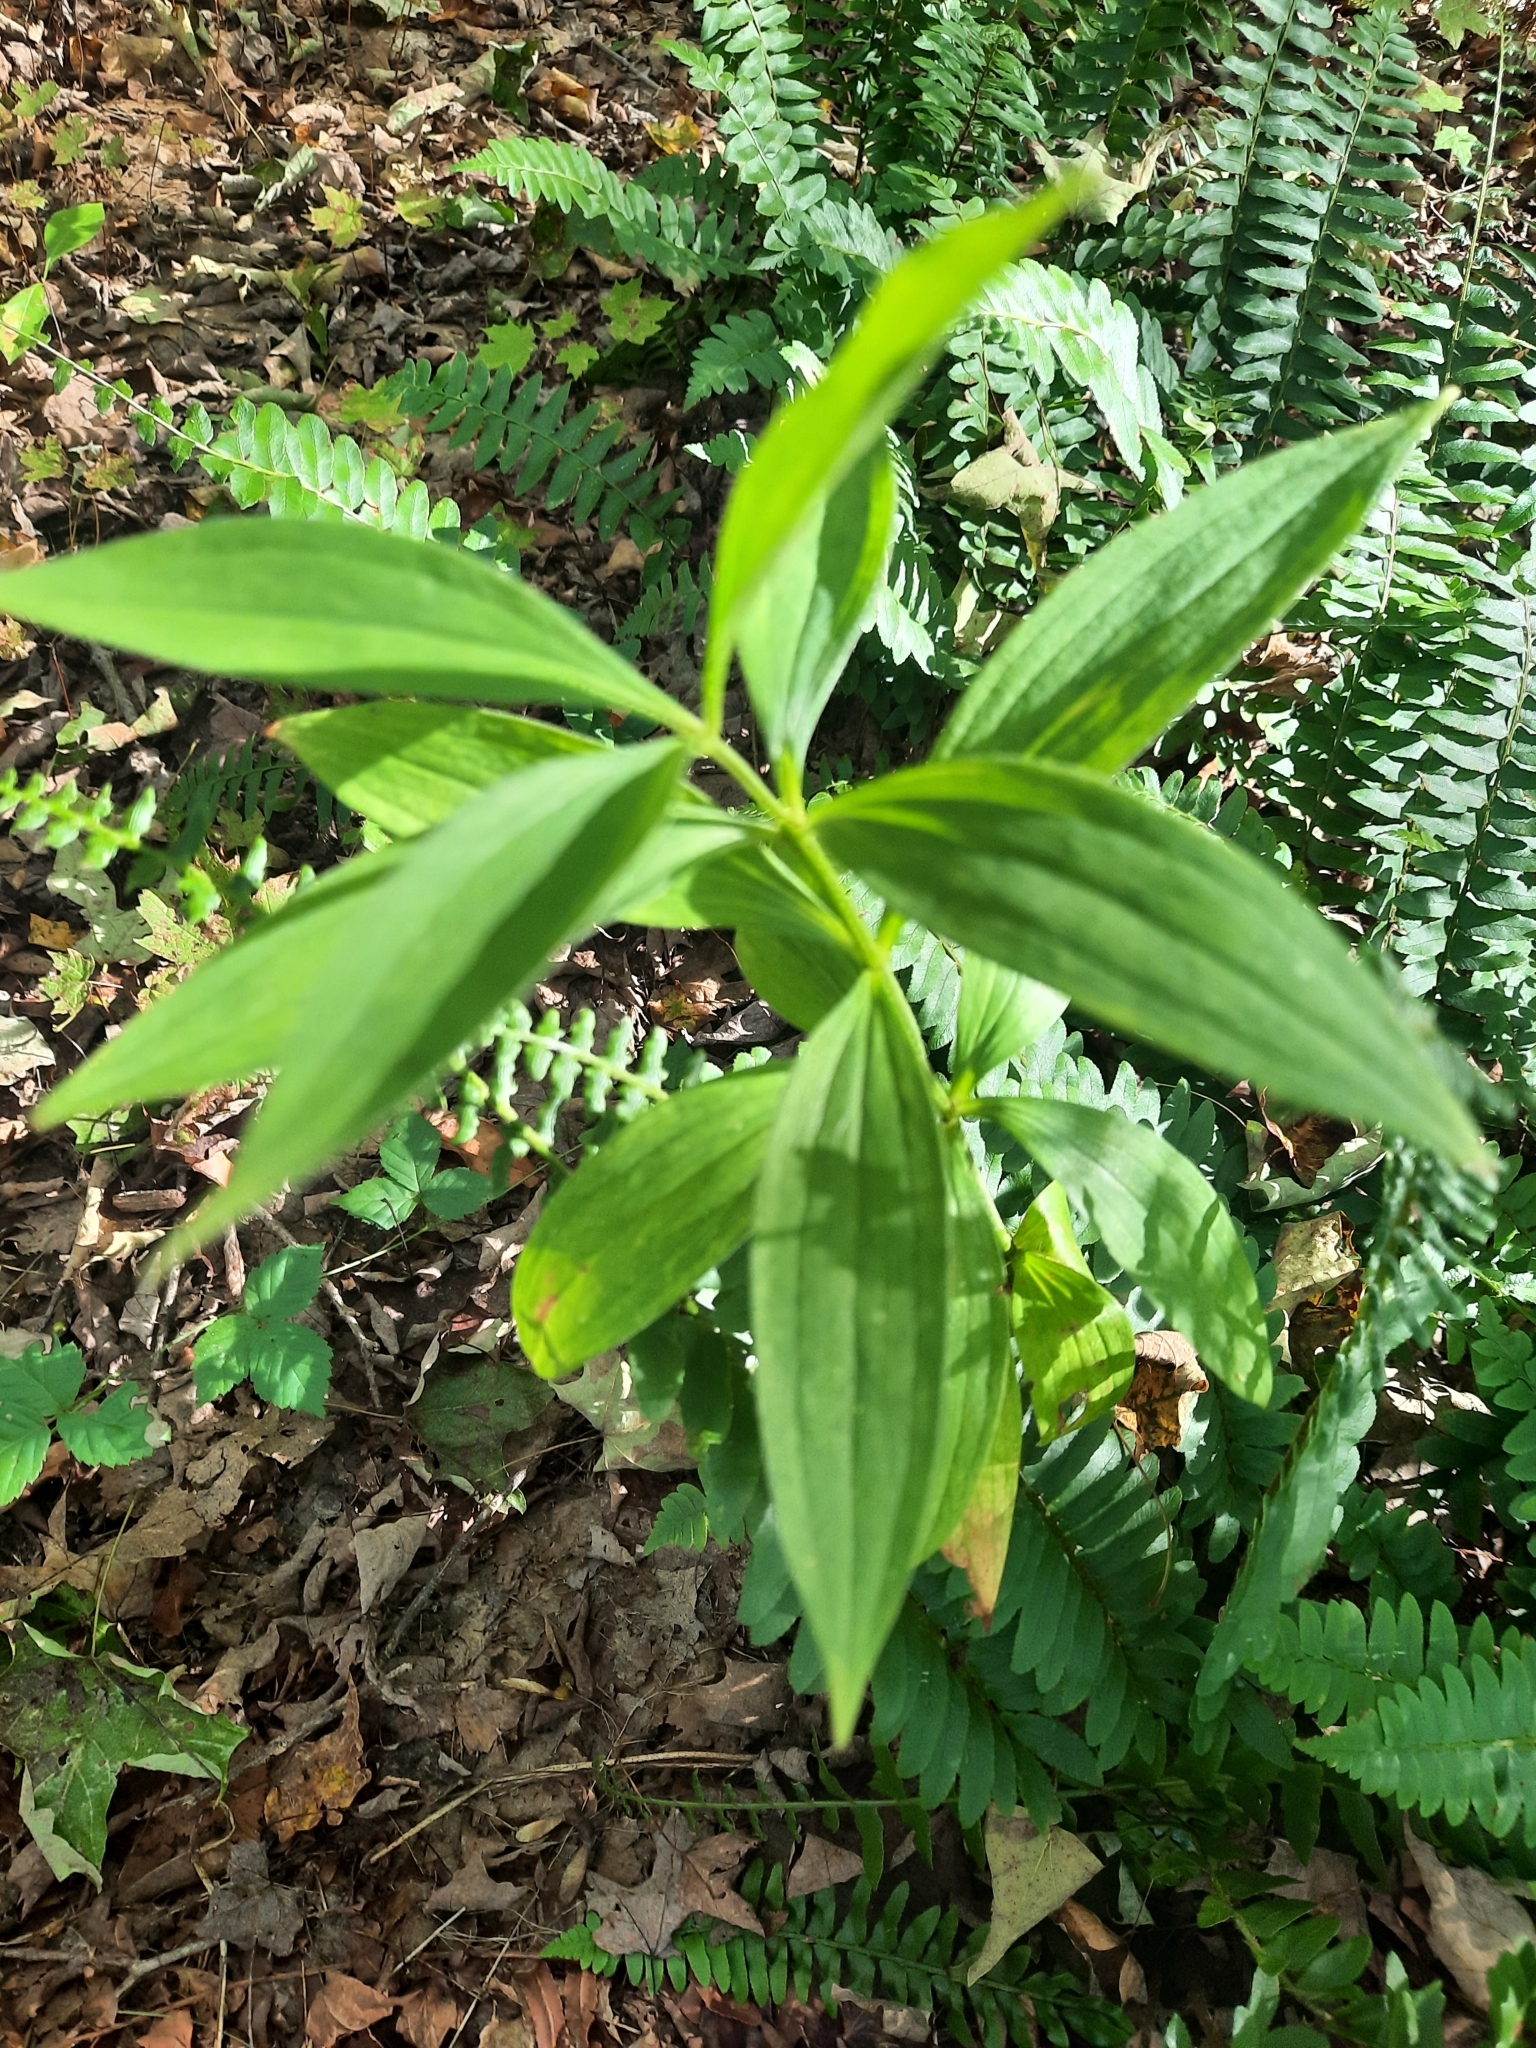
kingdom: Plantae
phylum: Tracheophyta
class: Liliopsida
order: Liliales
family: Liliaceae
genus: Lilium
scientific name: Lilium canadense
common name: Canada lily
